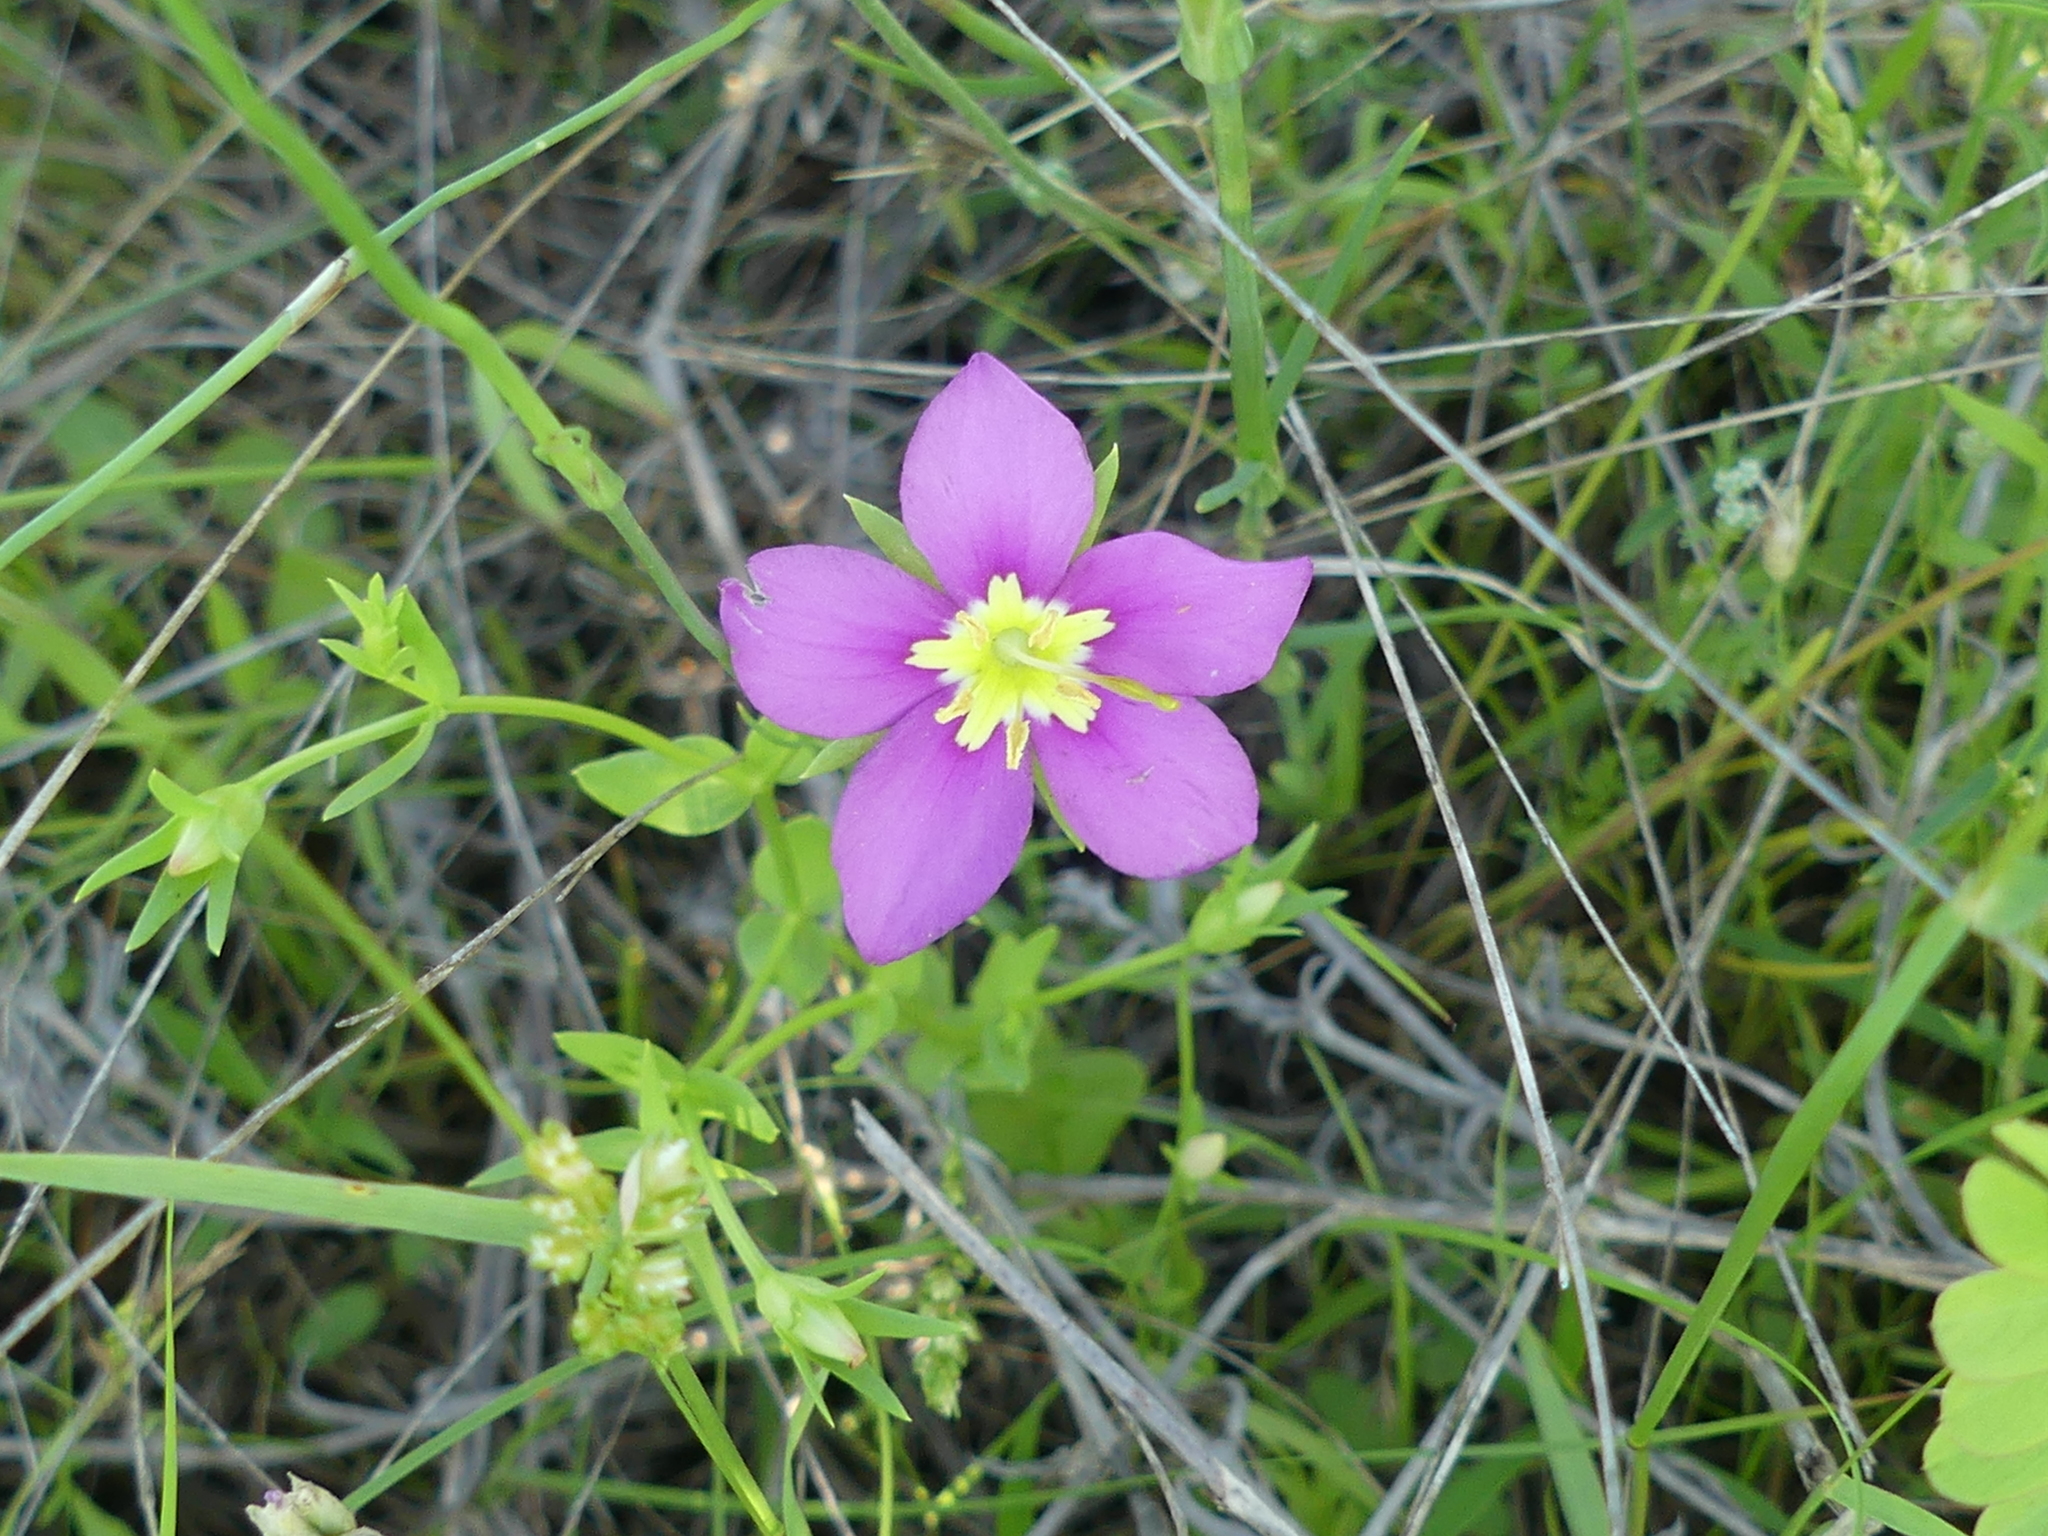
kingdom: Plantae
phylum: Tracheophyta
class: Magnoliopsida
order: Gentianales
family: Gentianaceae
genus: Sabatia
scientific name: Sabatia campestris
